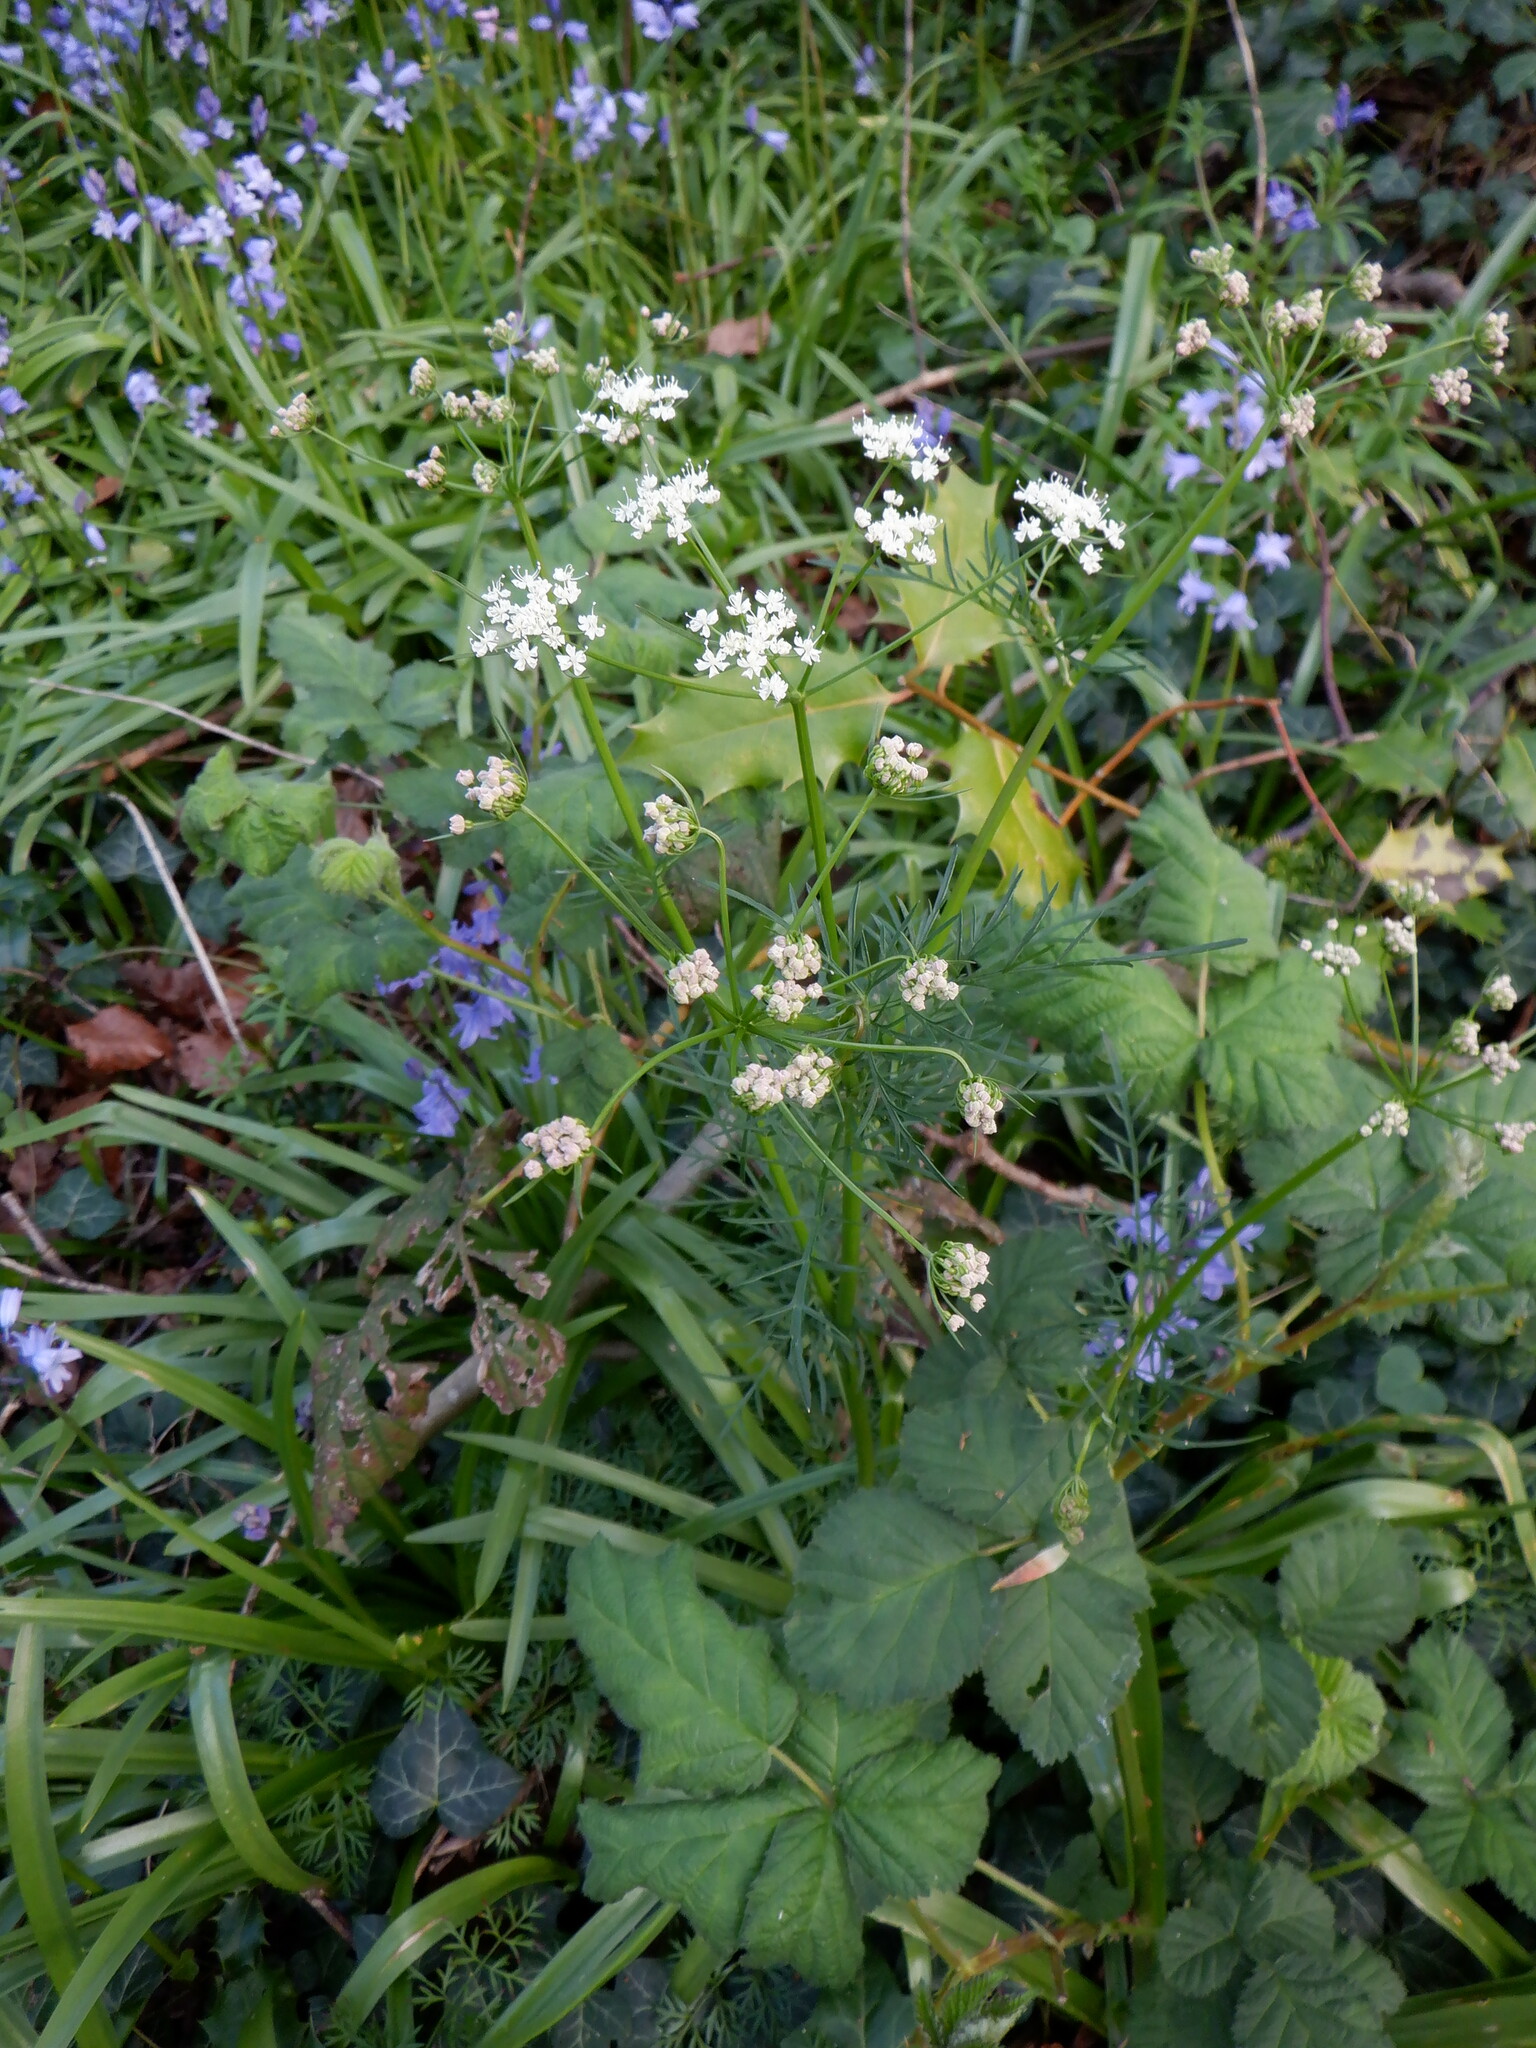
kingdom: Plantae
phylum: Tracheophyta
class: Magnoliopsida
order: Apiales
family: Apiaceae
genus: Conopodium
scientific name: Conopodium majus
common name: Pignut
